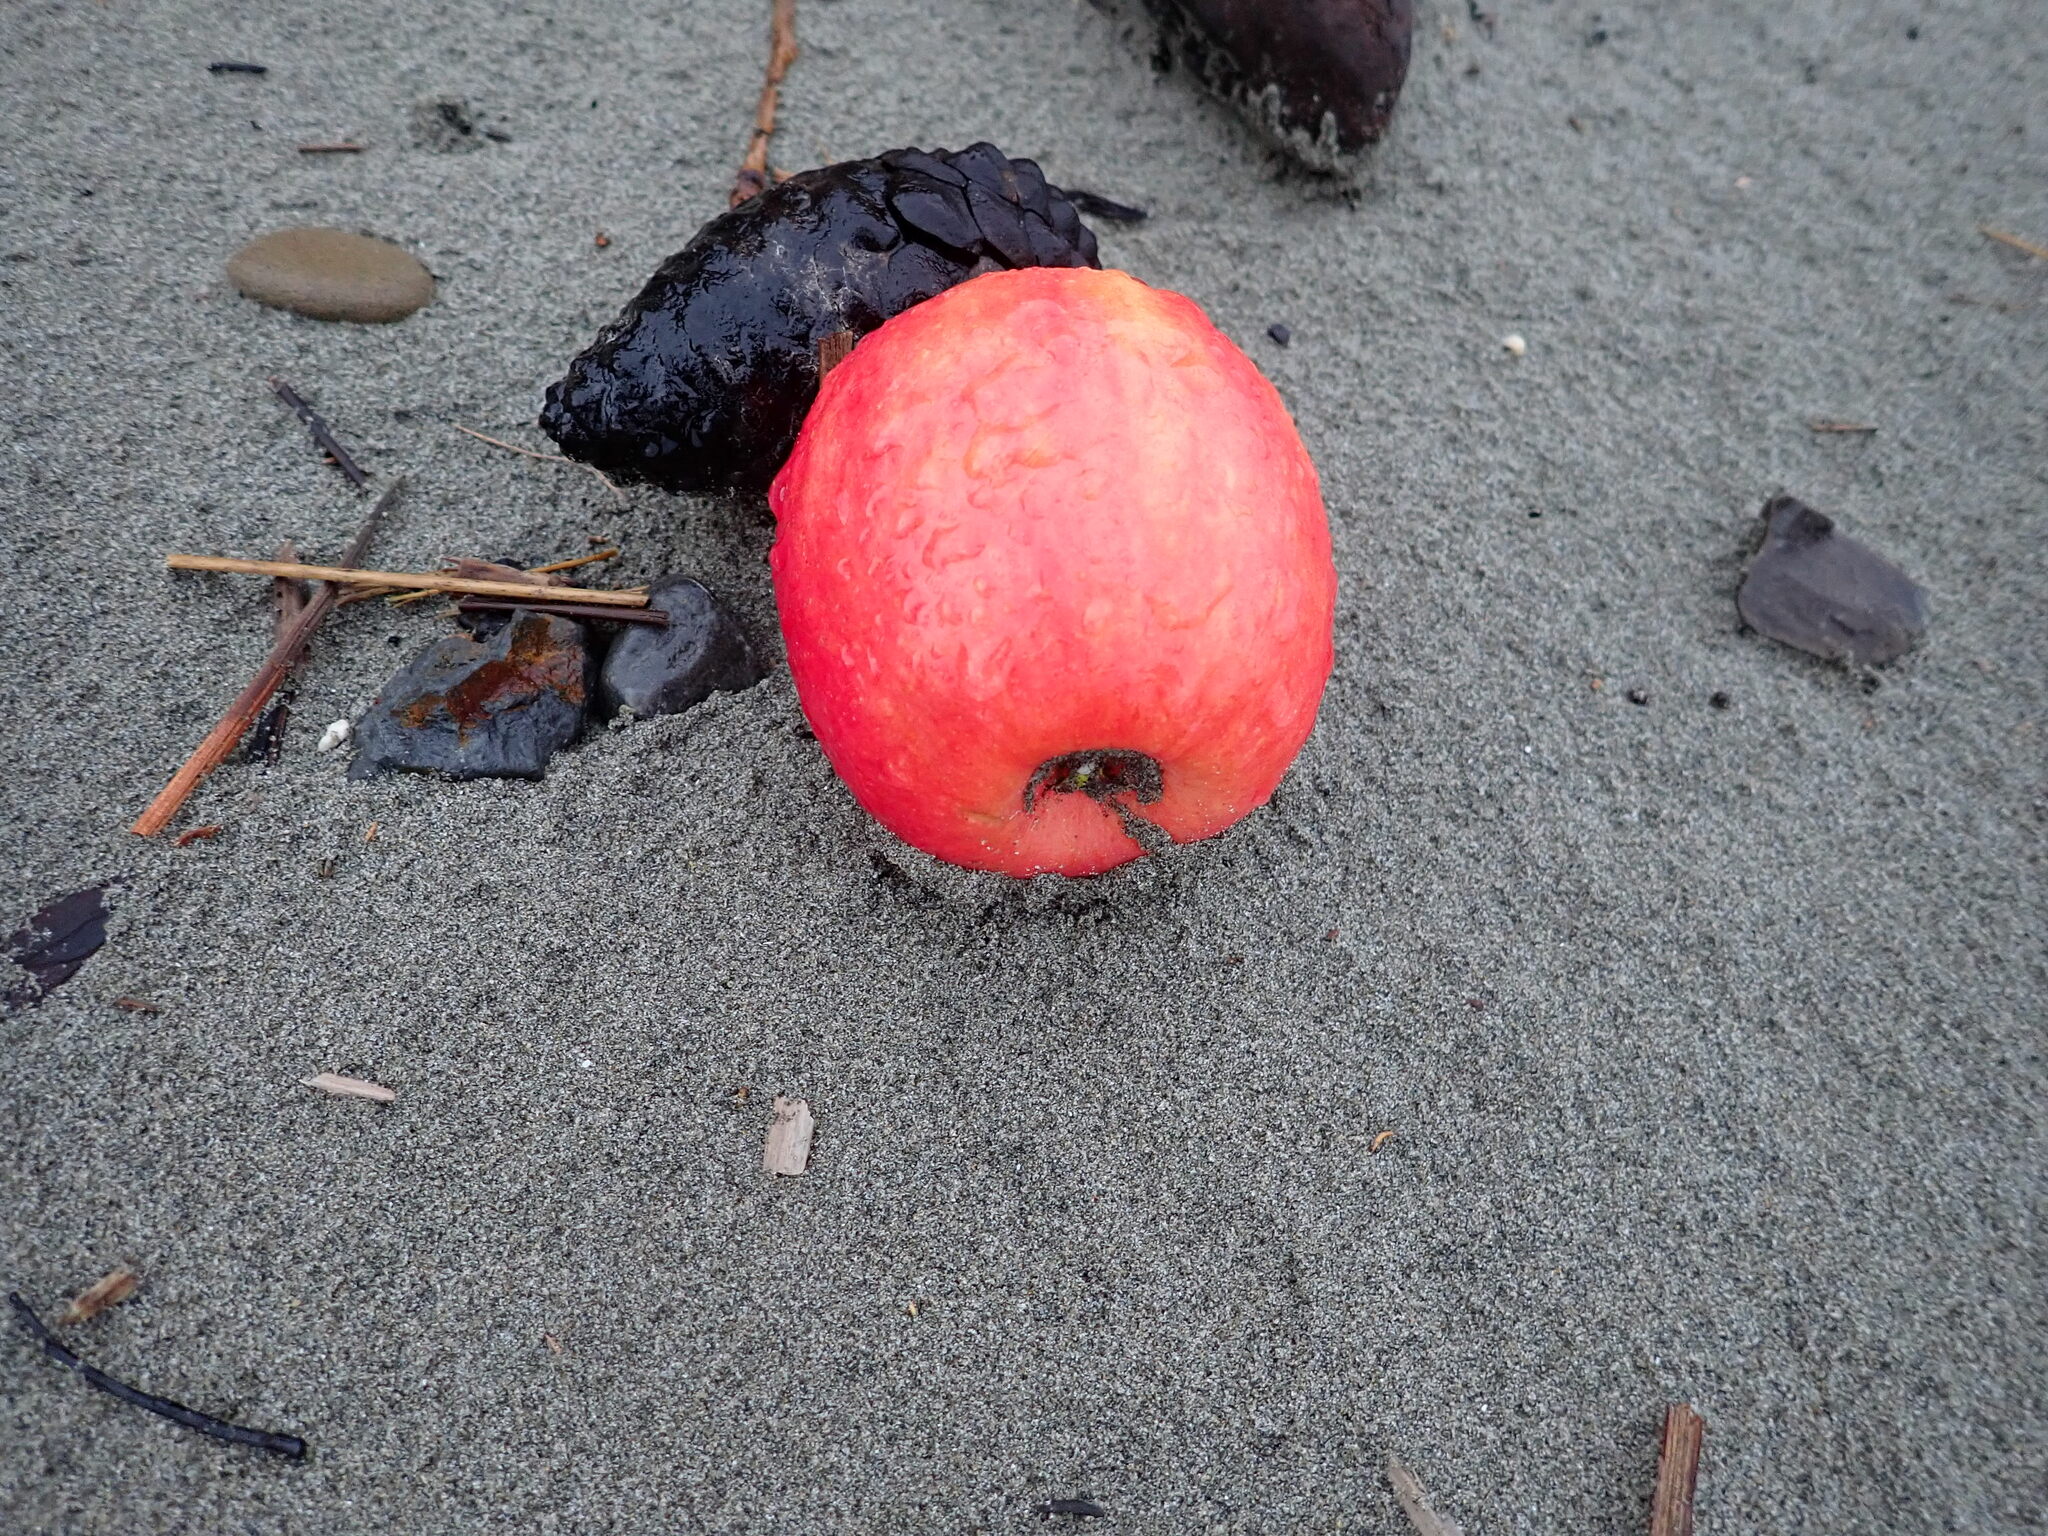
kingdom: Plantae
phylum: Tracheophyta
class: Magnoliopsida
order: Rosales
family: Rosaceae
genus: Malus
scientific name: Malus domestica
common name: Apple
